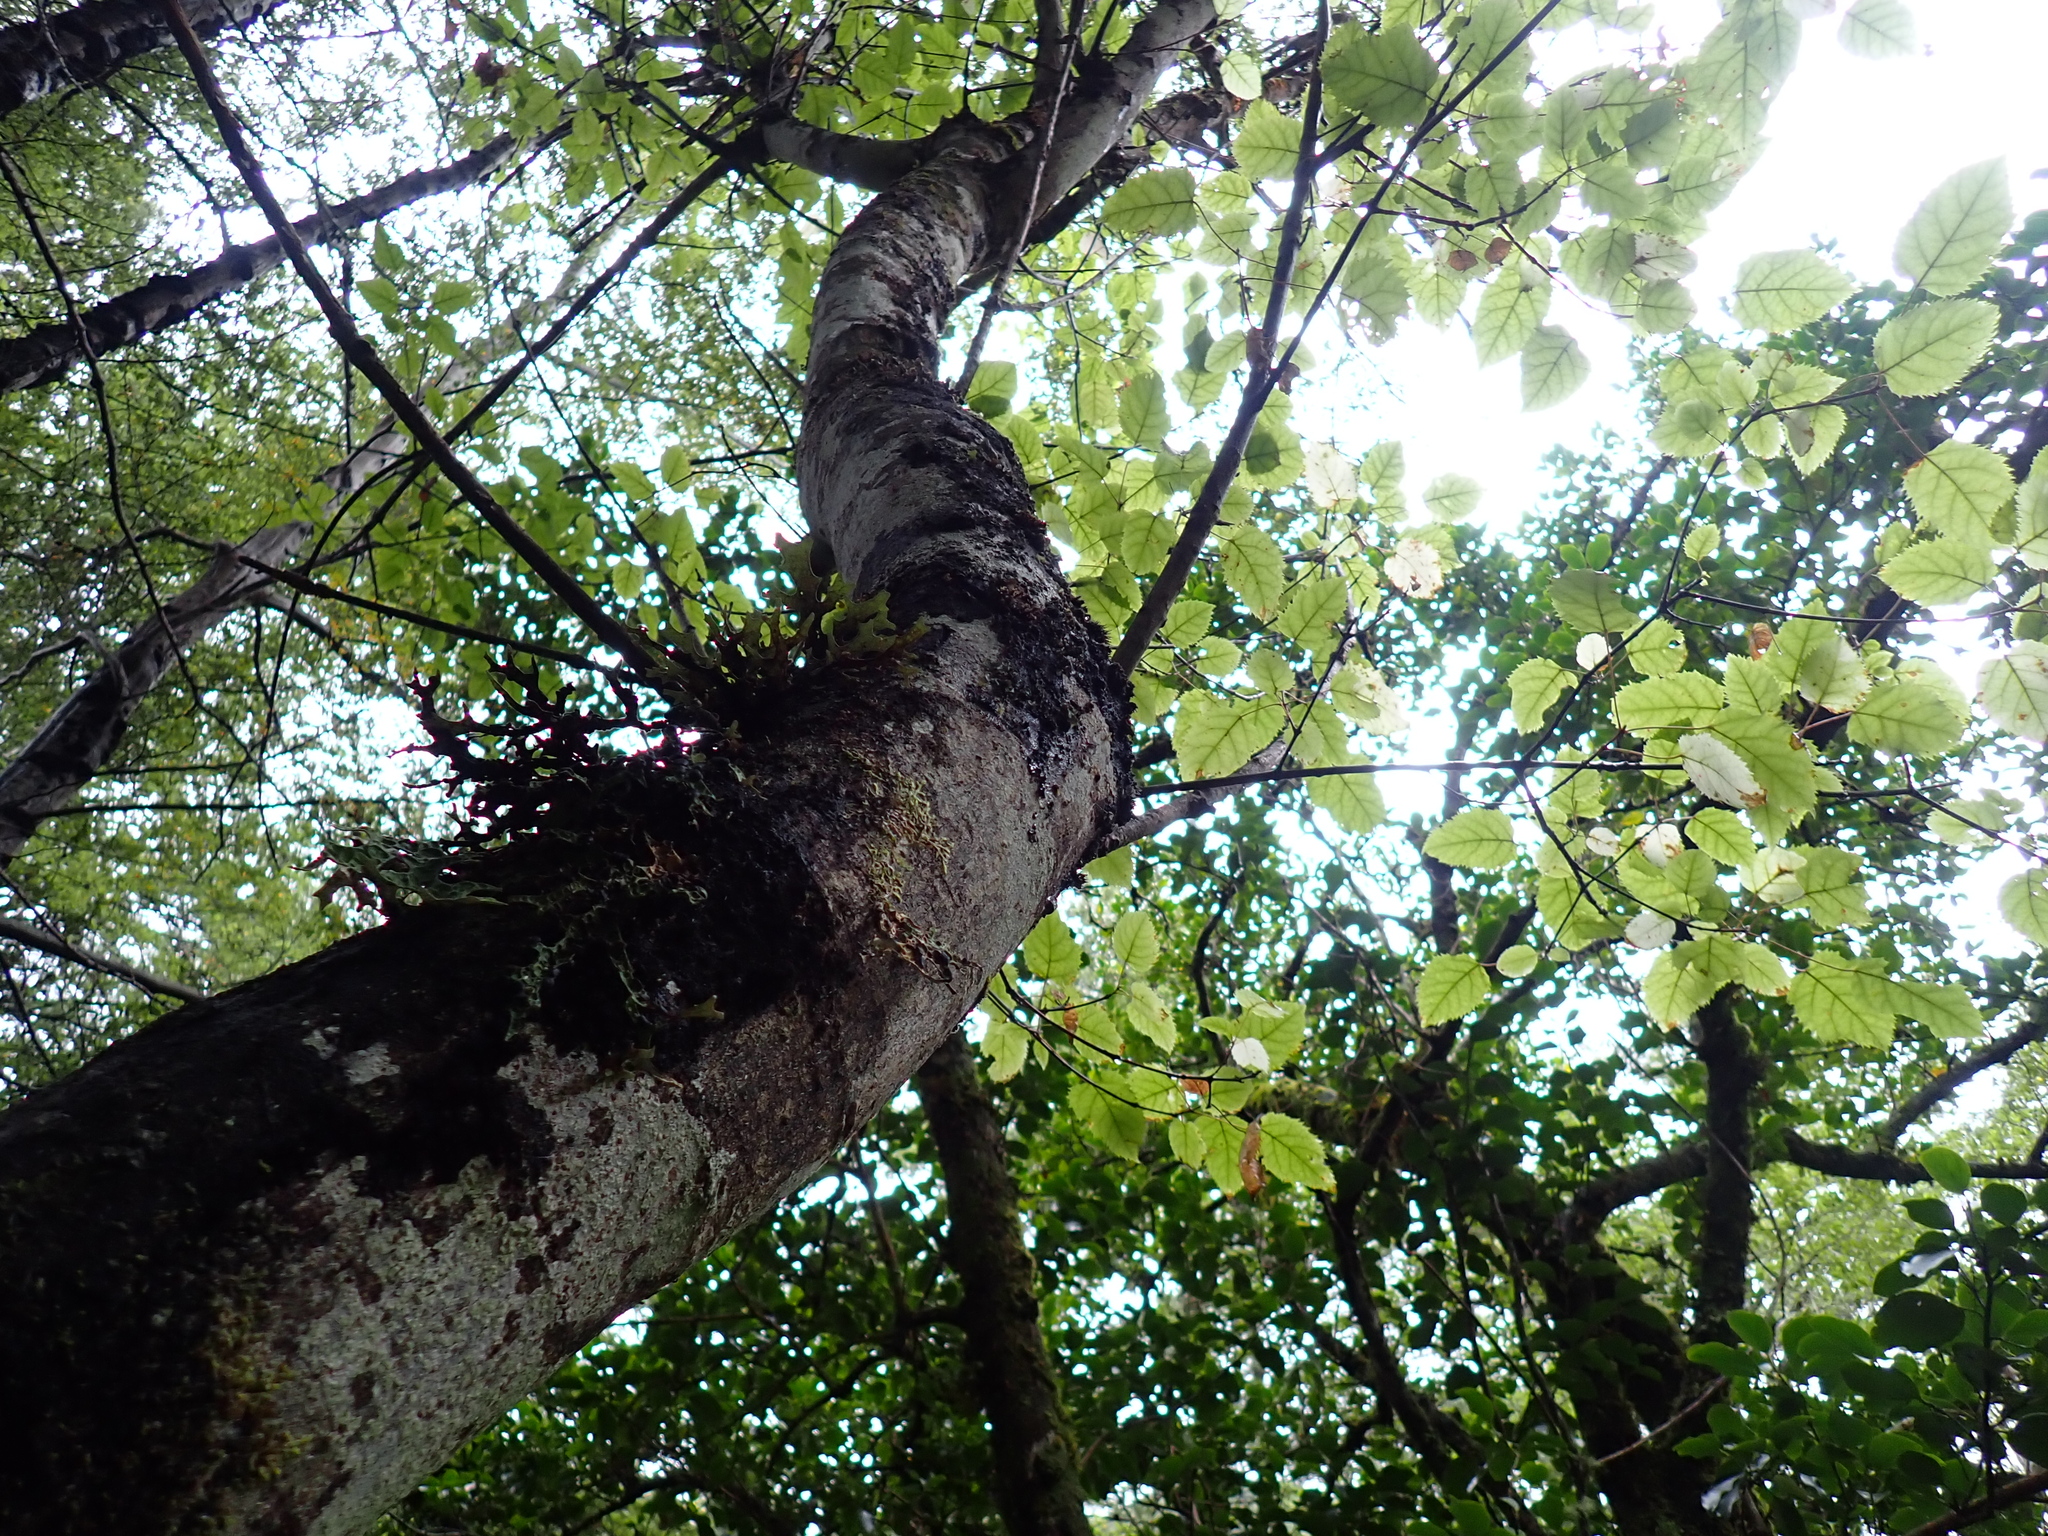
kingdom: Plantae
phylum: Tracheophyta
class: Magnoliopsida
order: Oxalidales
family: Elaeocarpaceae
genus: Aristotelia
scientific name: Aristotelia serrata
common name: New zealand wineberry
